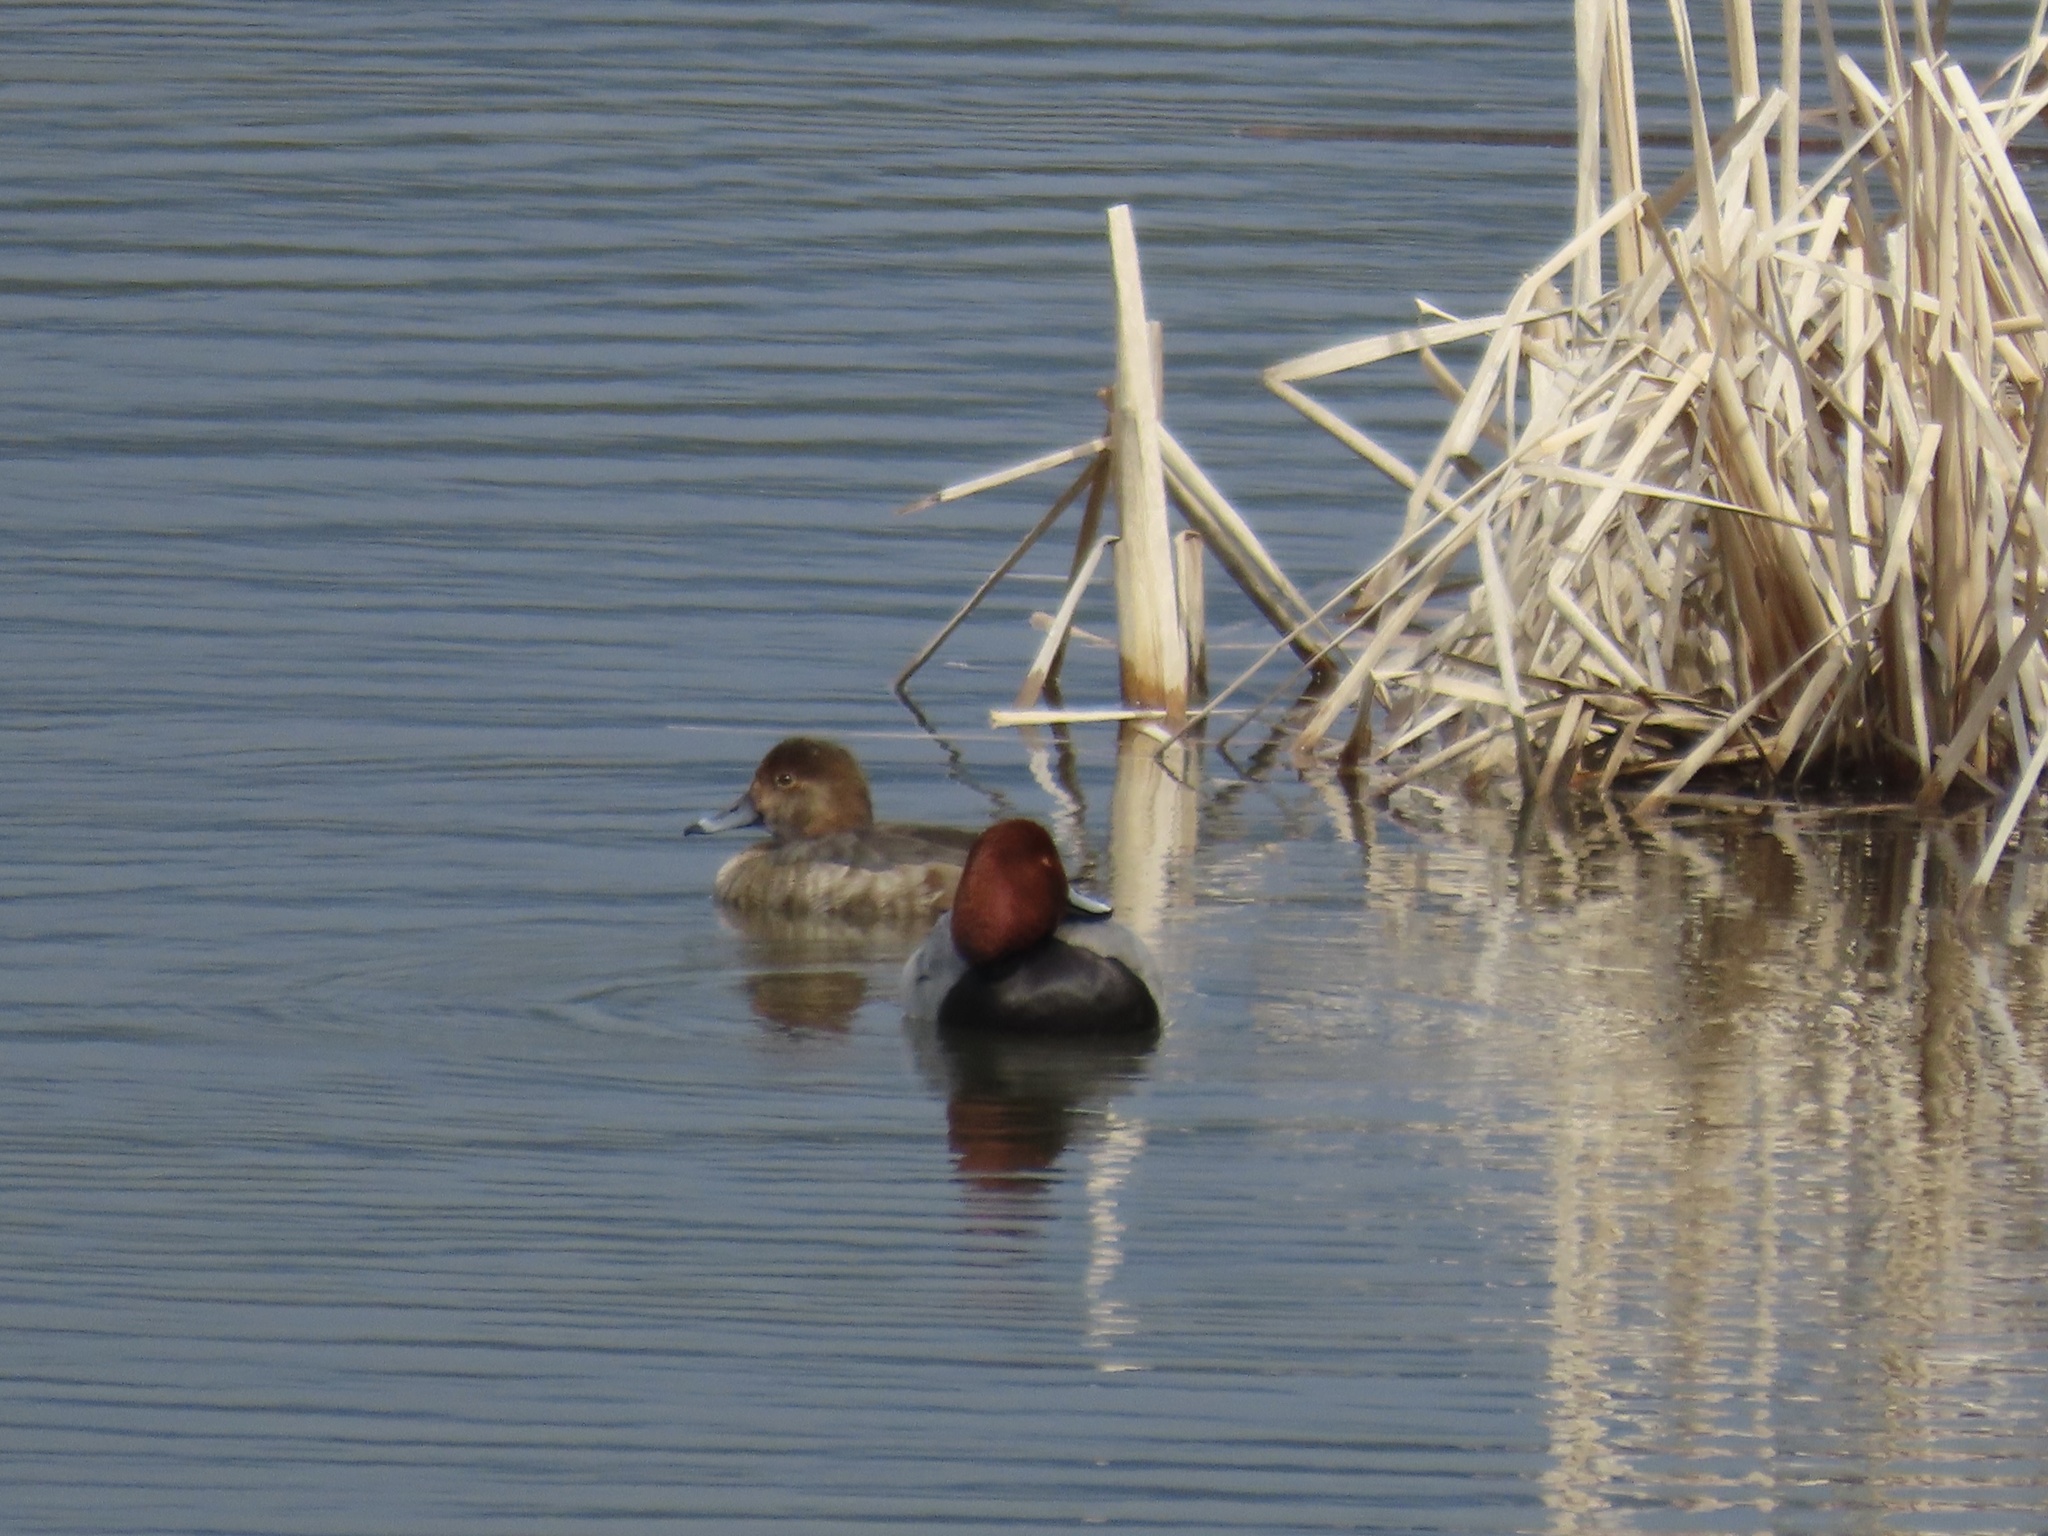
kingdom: Animalia
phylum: Chordata
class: Aves
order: Anseriformes
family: Anatidae
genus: Aythya
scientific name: Aythya americana
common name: Redhead
